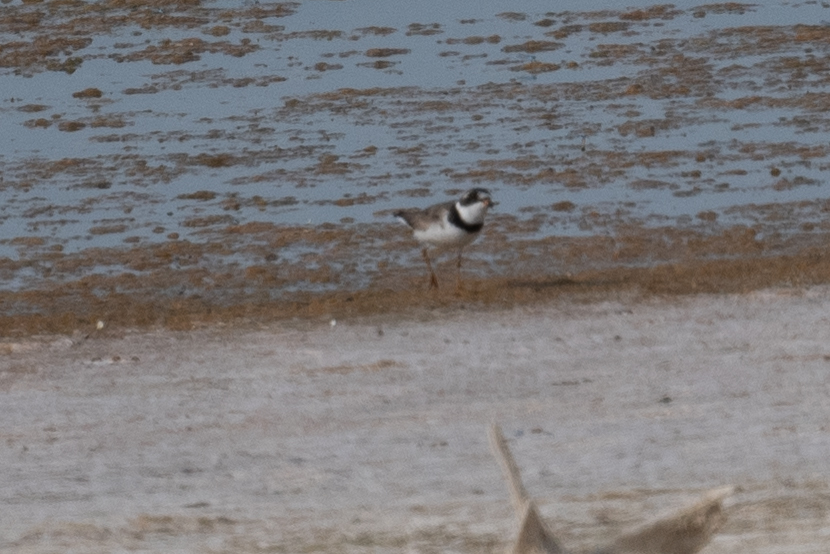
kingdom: Animalia
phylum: Chordata
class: Aves
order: Charadriiformes
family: Charadriidae
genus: Charadrius
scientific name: Charadrius semipalmatus
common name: Semipalmated plover
